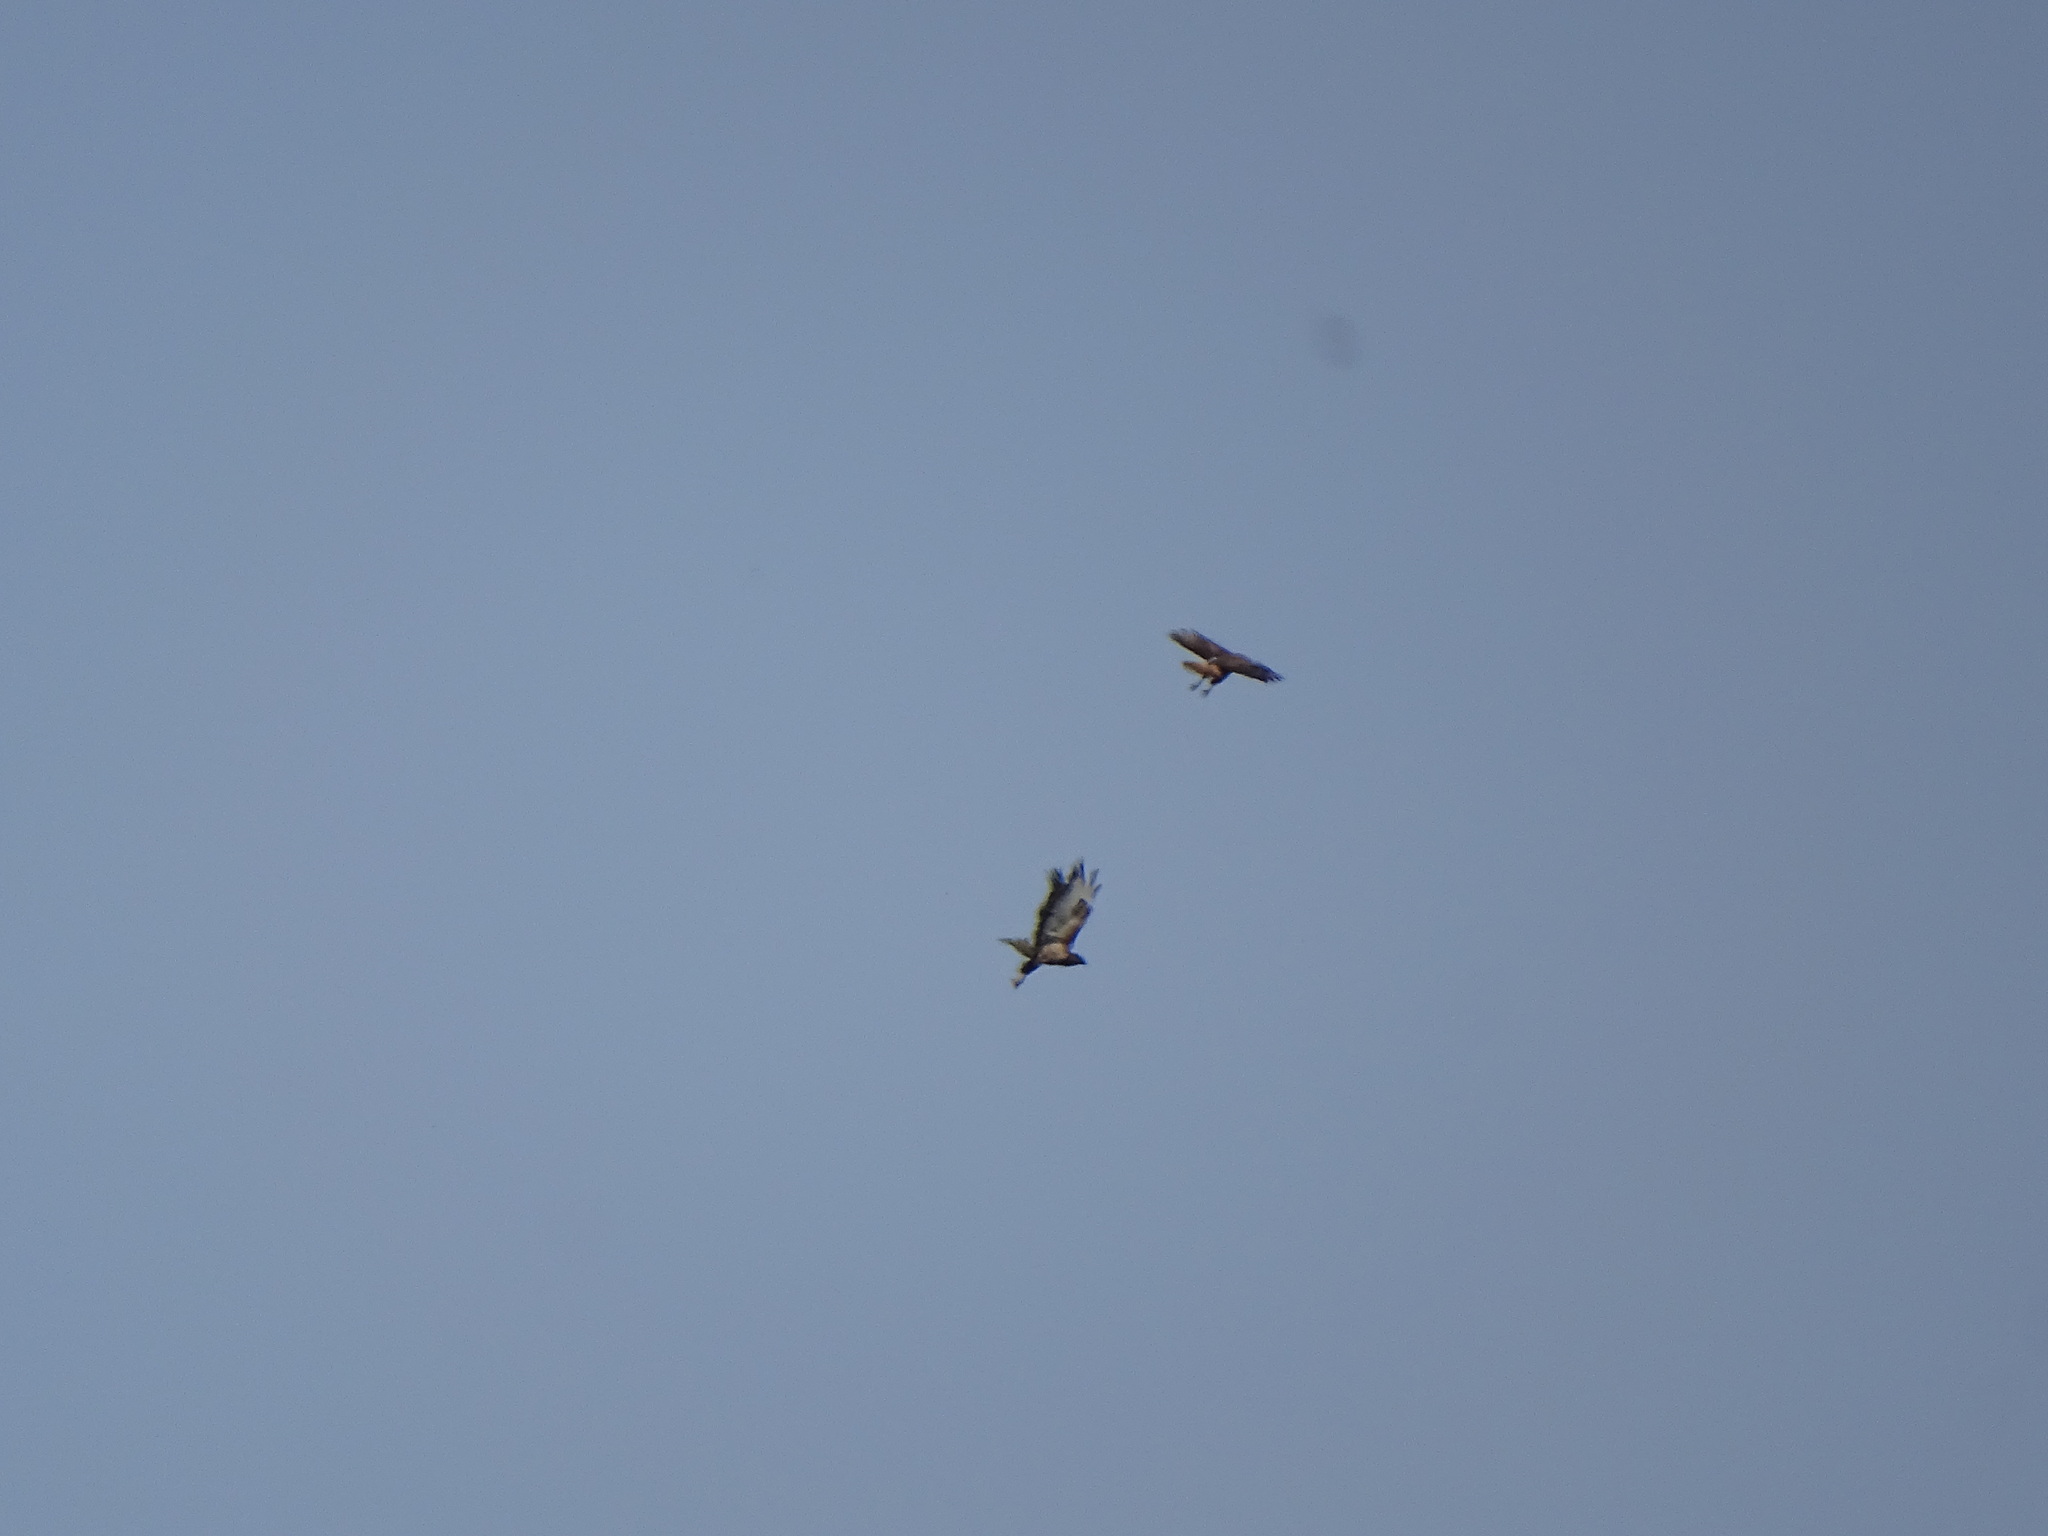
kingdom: Animalia
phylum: Chordata
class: Aves
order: Accipitriformes
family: Accipitridae
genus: Buteo
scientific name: Buteo buteo
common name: Common buzzard
